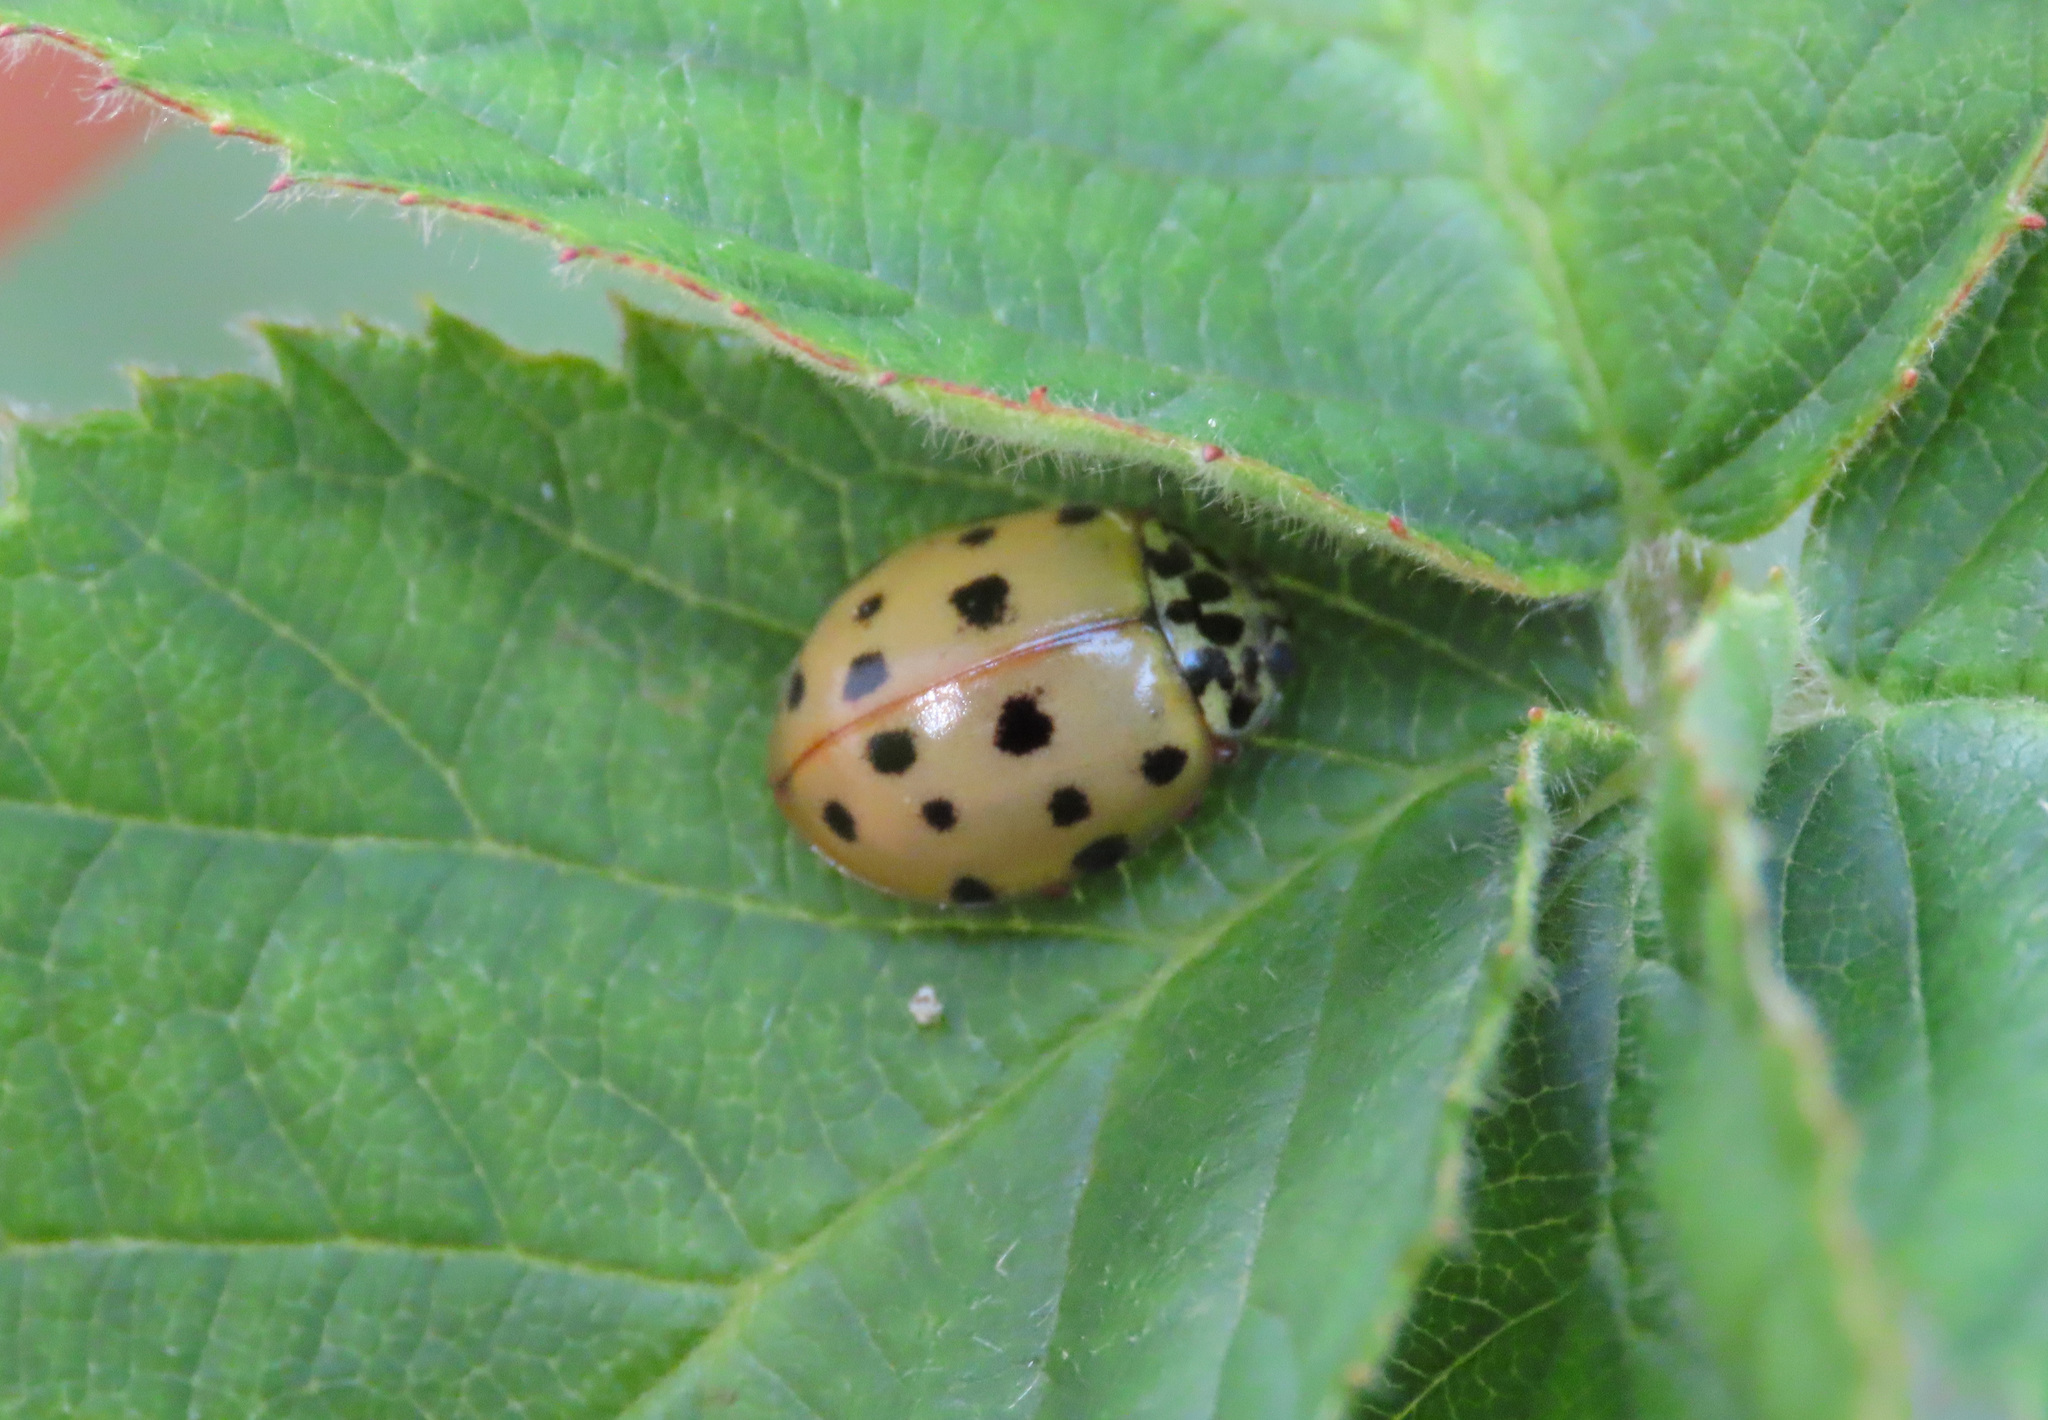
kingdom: Animalia
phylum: Arthropoda
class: Insecta
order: Coleoptera
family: Coccinellidae
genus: Harmonia
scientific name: Harmonia quadripunctata
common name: Cream-streaked ladybird
